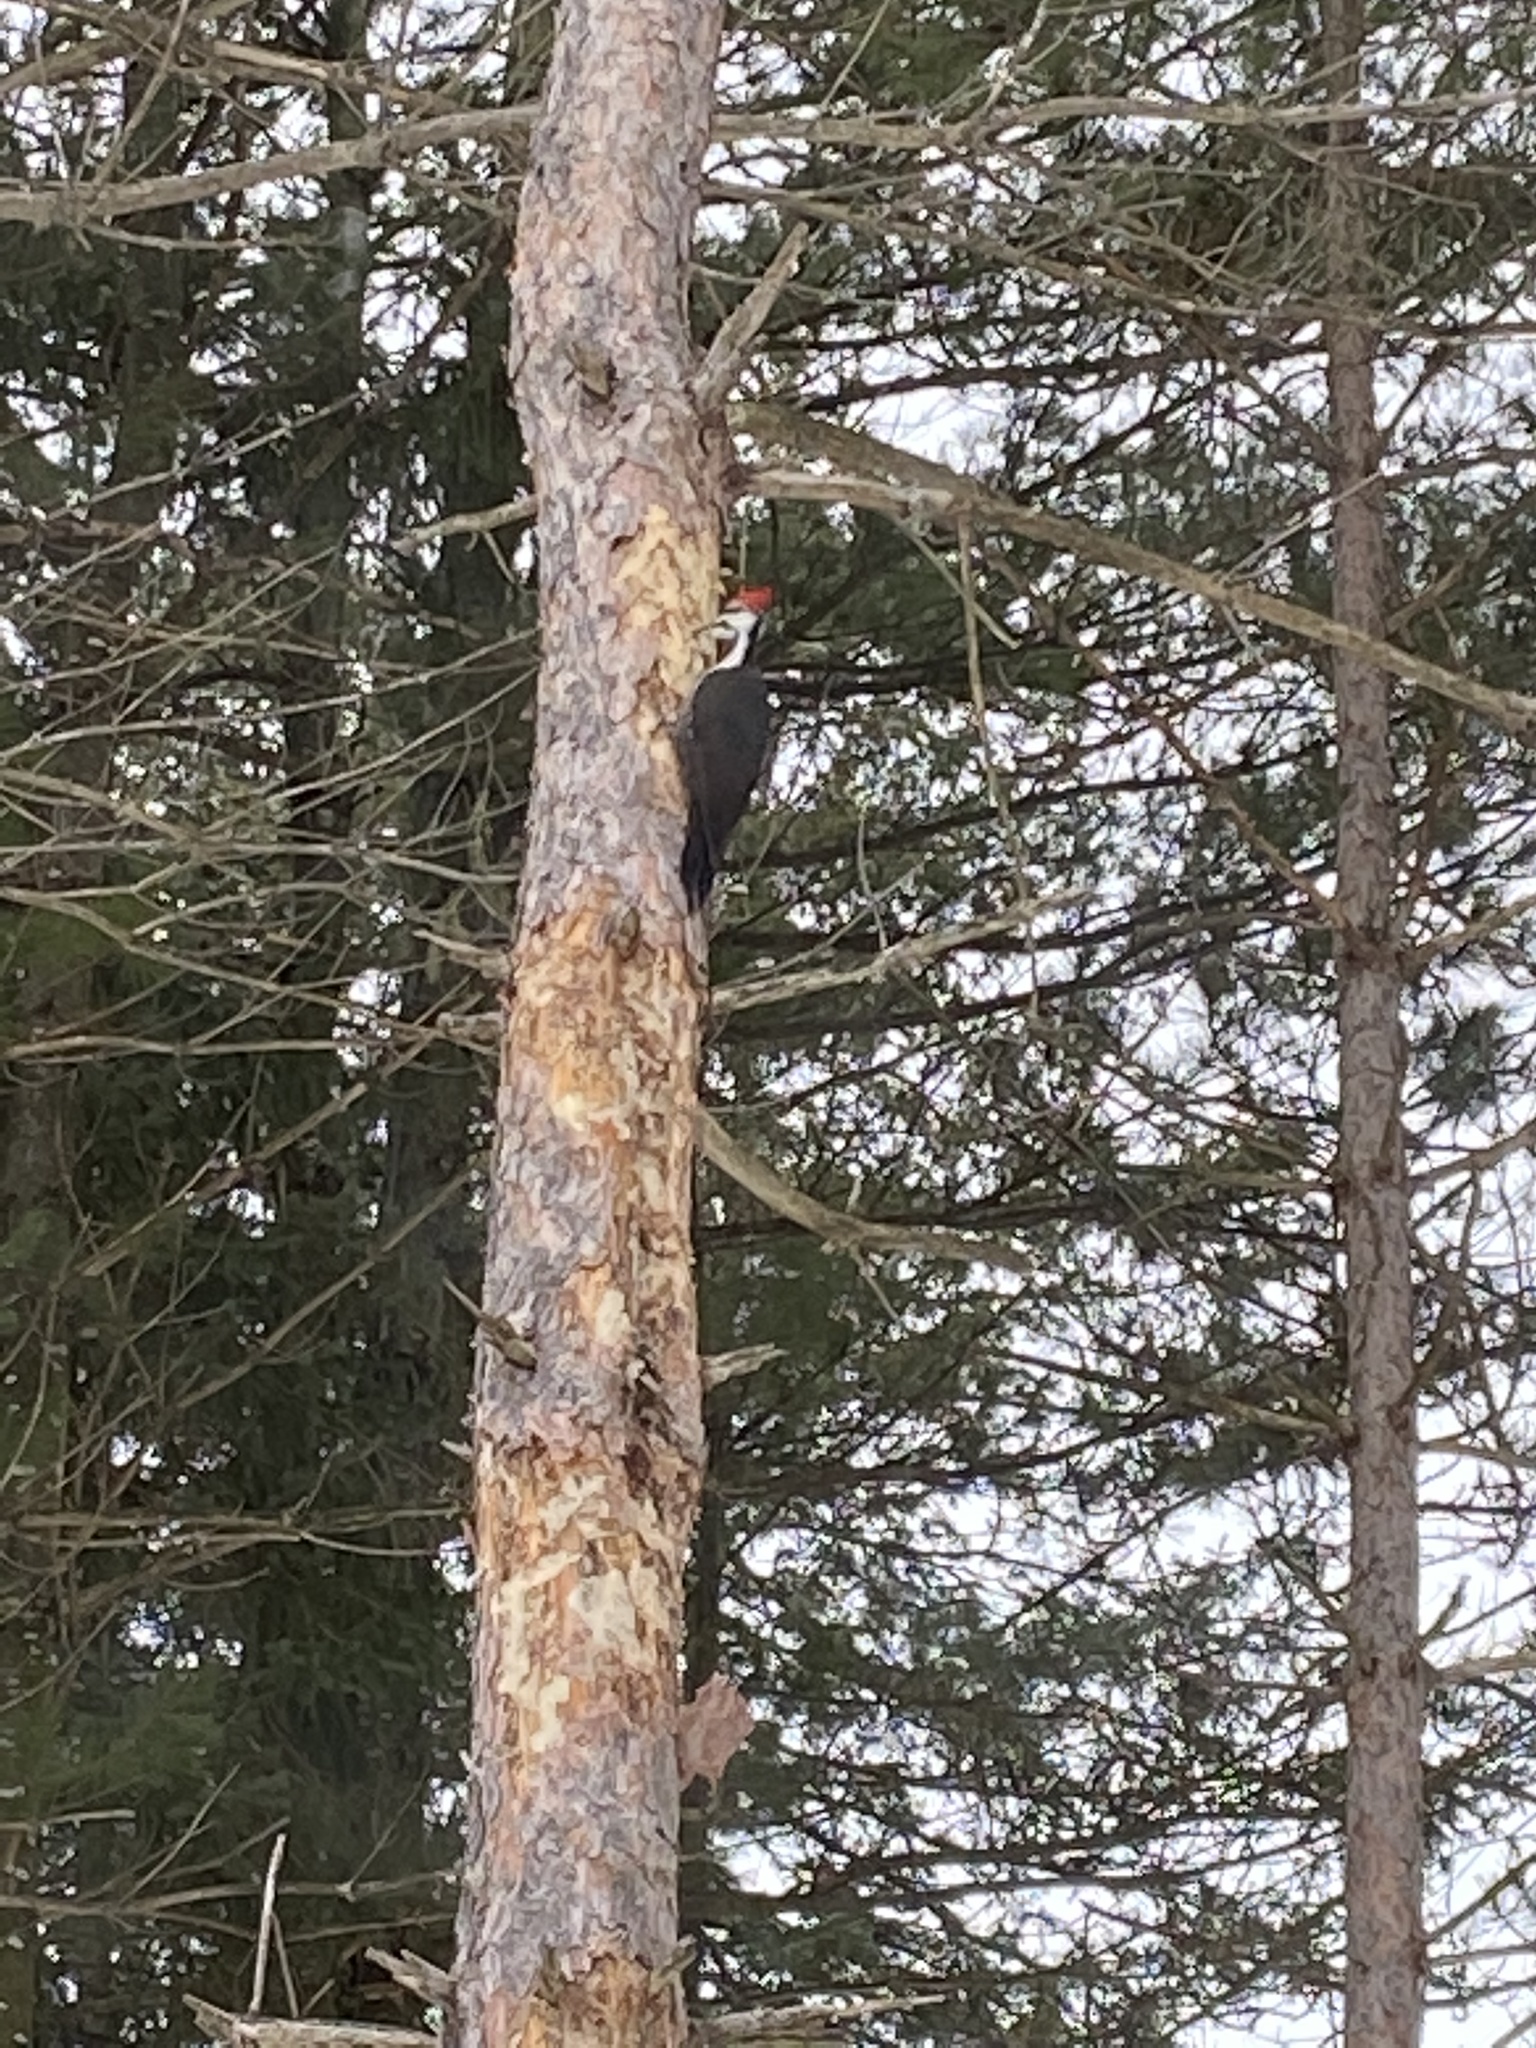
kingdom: Animalia
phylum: Chordata
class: Aves
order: Piciformes
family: Picidae
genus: Dryocopus
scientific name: Dryocopus pileatus
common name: Pileated woodpecker
